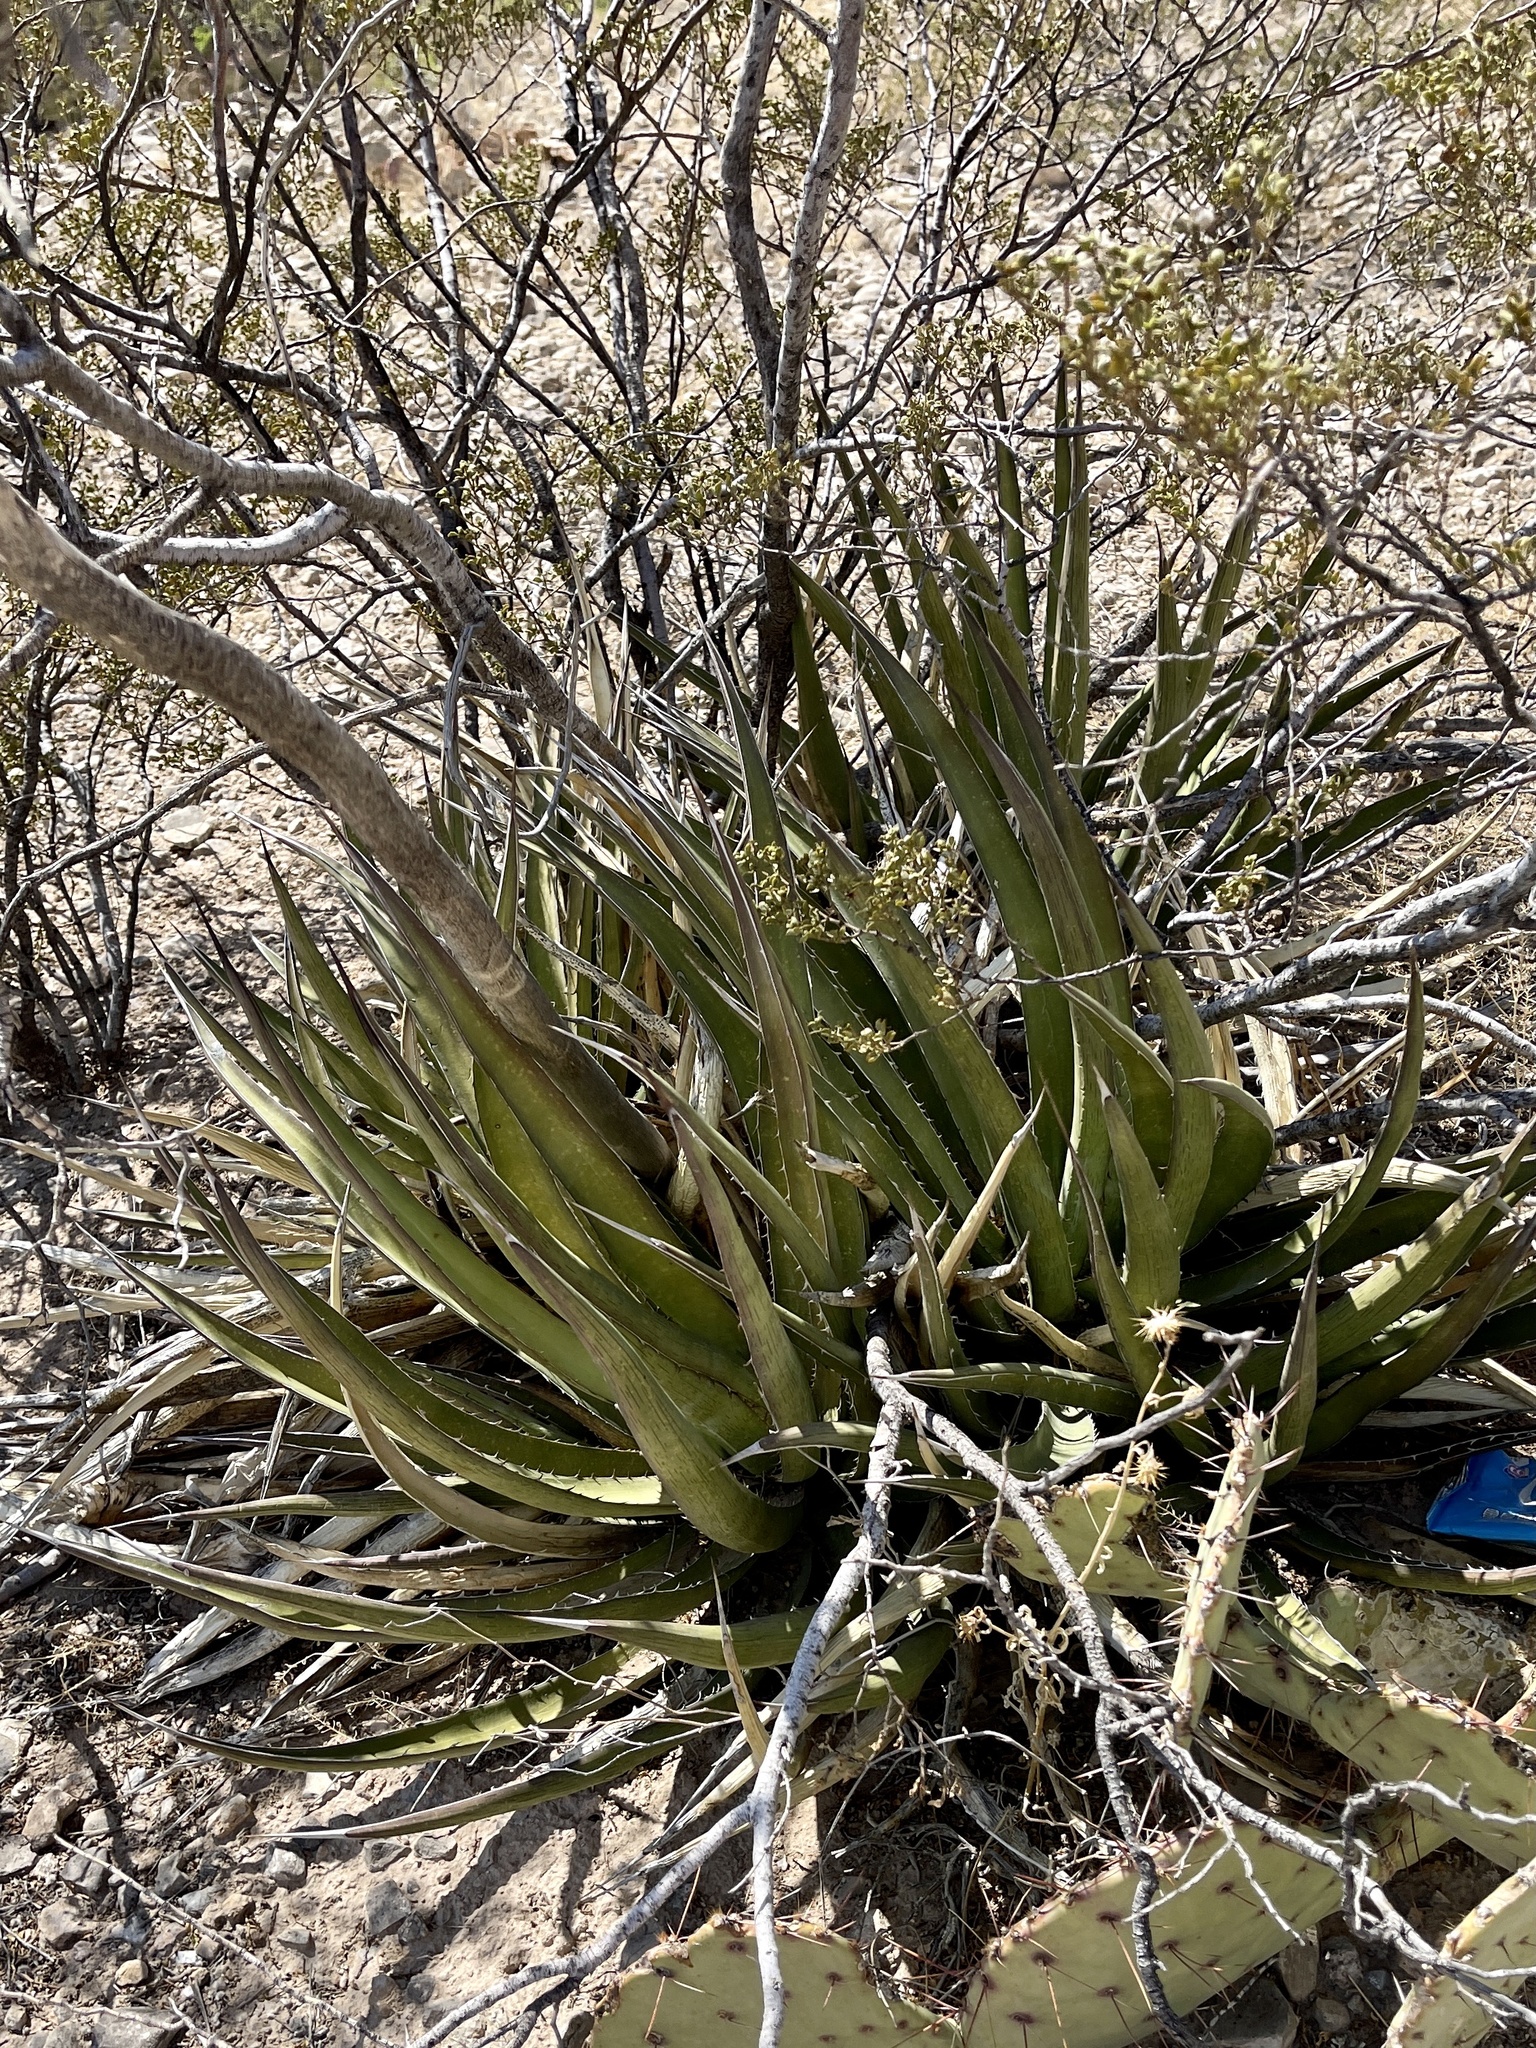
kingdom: Plantae
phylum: Tracheophyta
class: Liliopsida
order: Asparagales
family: Asparagaceae
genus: Agave
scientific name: Agave lechuguilla
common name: Lecheguilla agave
